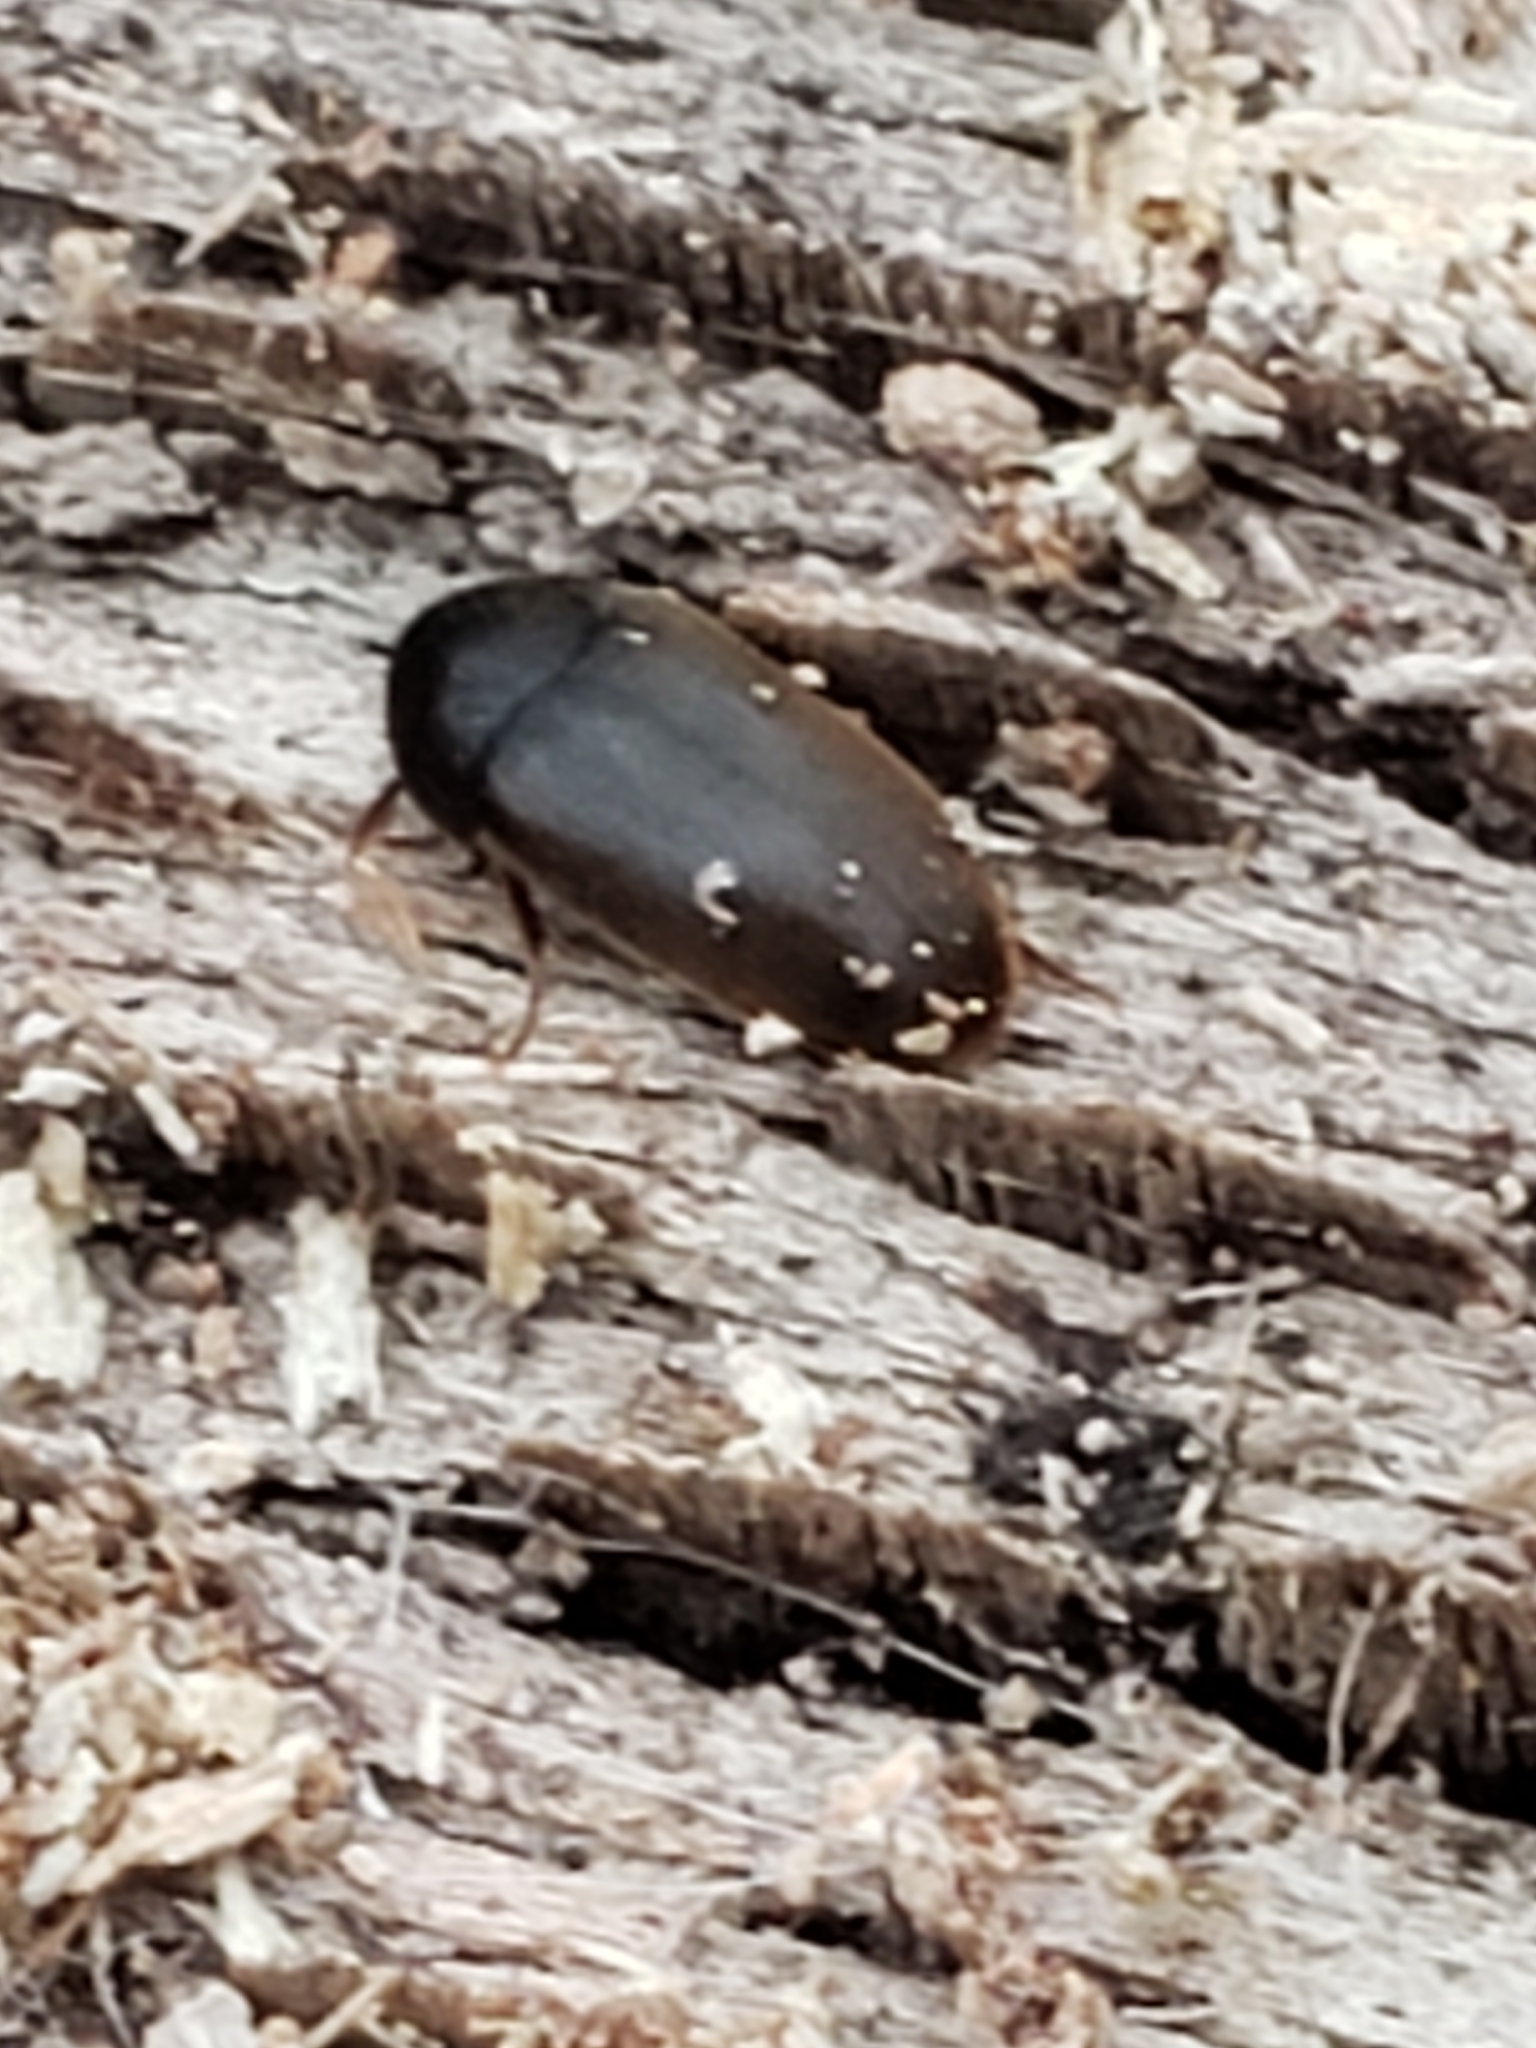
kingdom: Animalia
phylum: Arthropoda
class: Insecta
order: Coleoptera
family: Tetratomidae
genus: Eustrophus
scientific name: Eustrophus tomentosus
